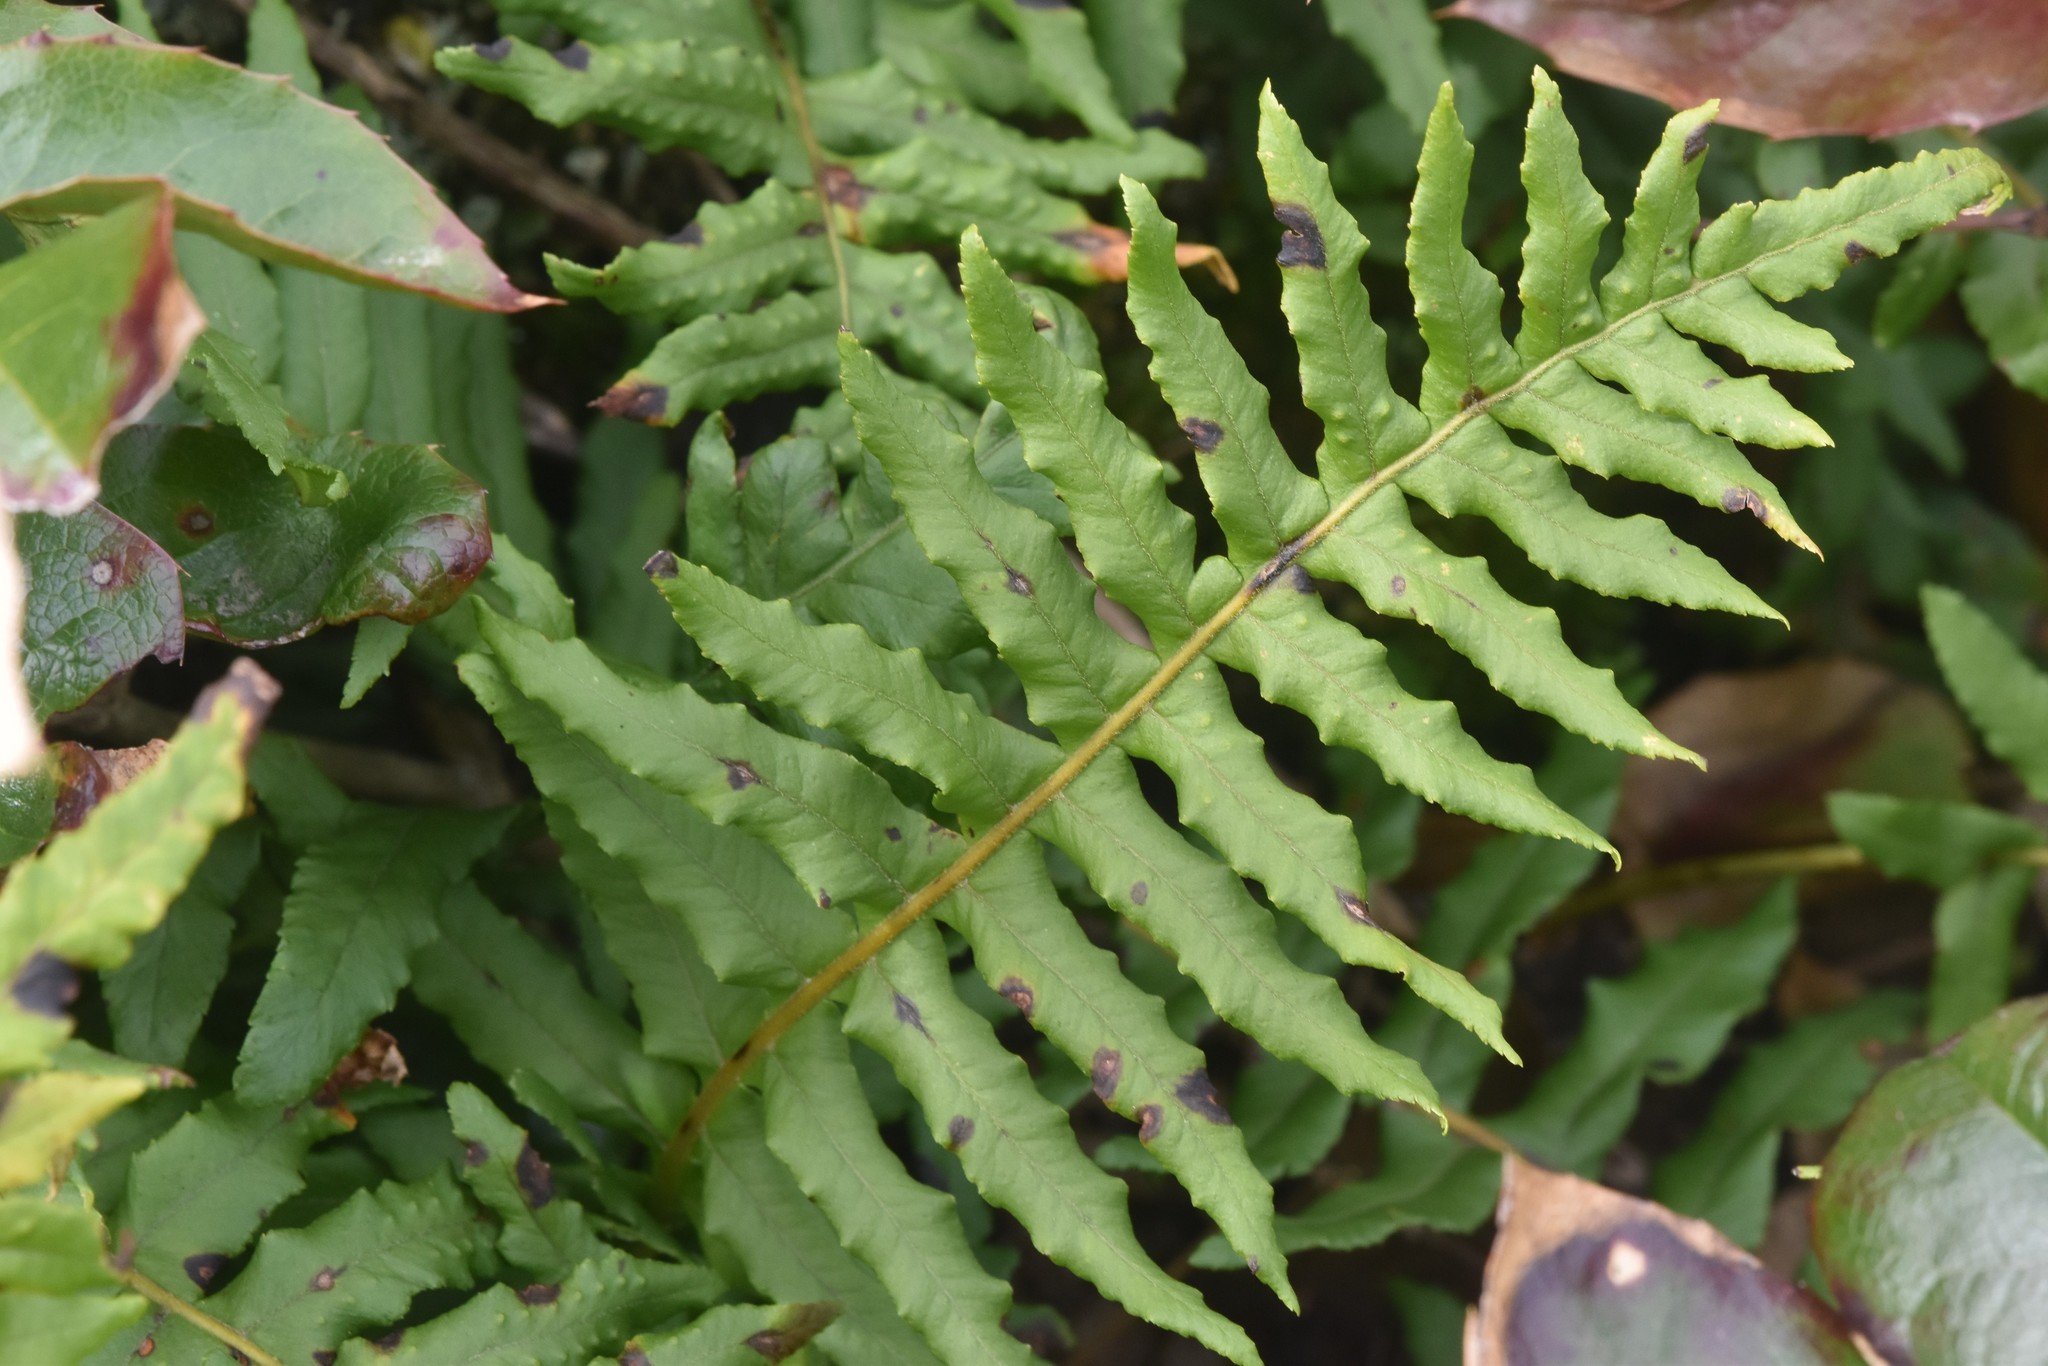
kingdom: Plantae
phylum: Tracheophyta
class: Polypodiopsida
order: Polypodiales
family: Polypodiaceae
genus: Polypodium
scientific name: Polypodium glycyrrhiza
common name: Licorice fern
